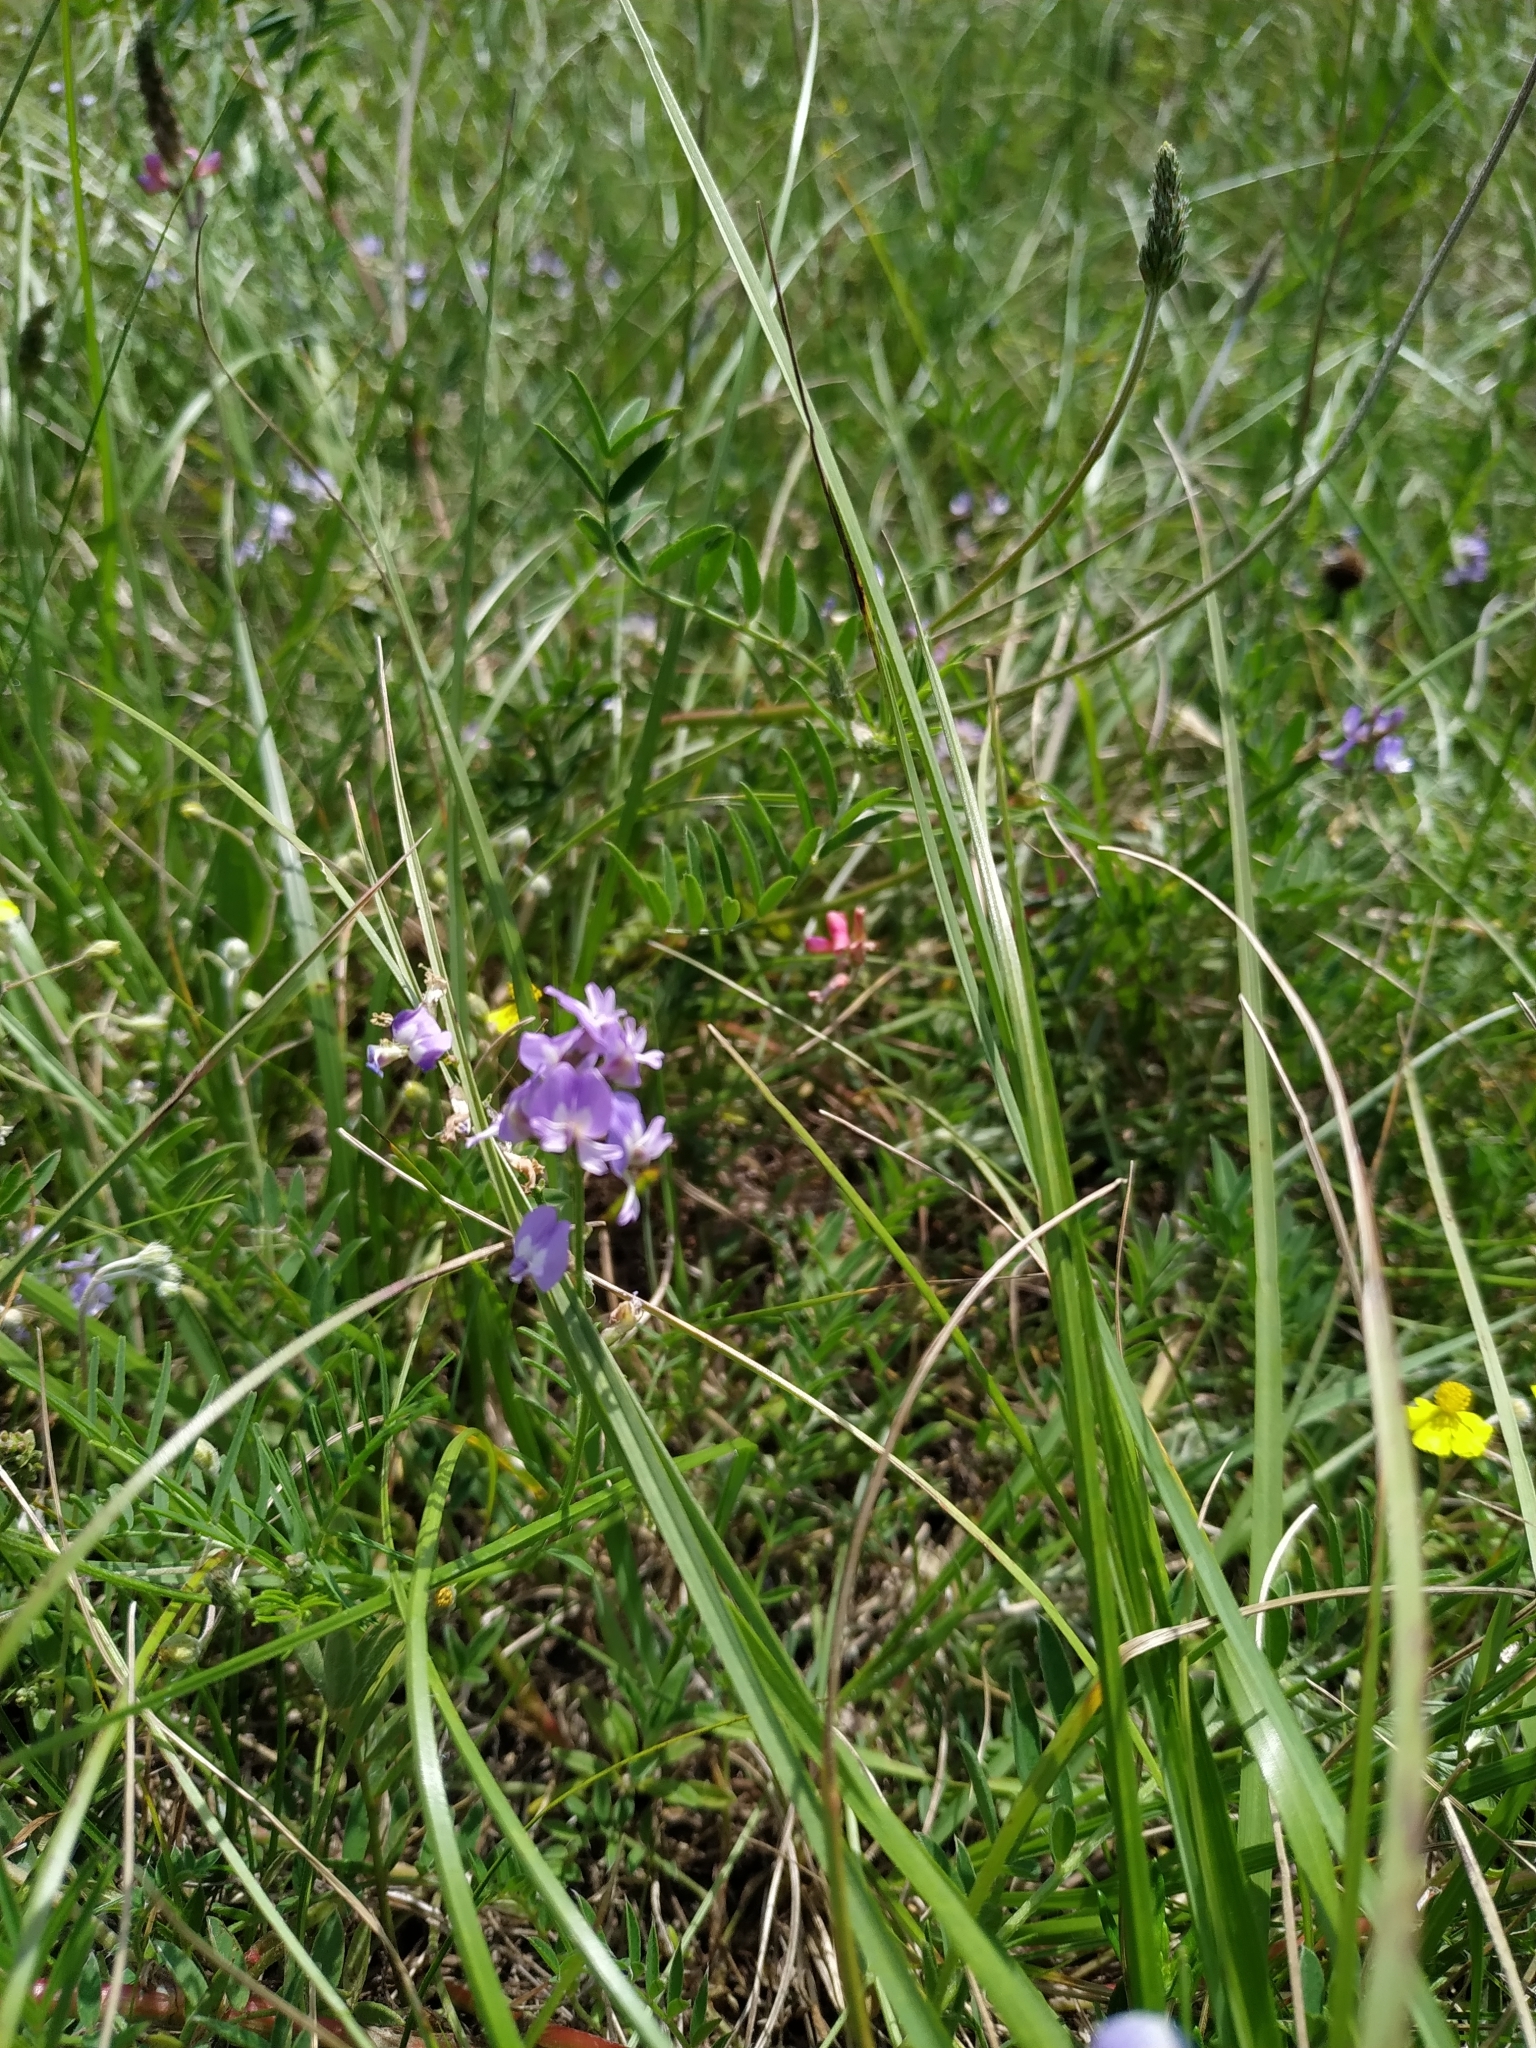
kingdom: Plantae
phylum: Tracheophyta
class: Magnoliopsida
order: Fabales
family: Fabaceae
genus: Astragalus
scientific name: Astragalus austriacus
